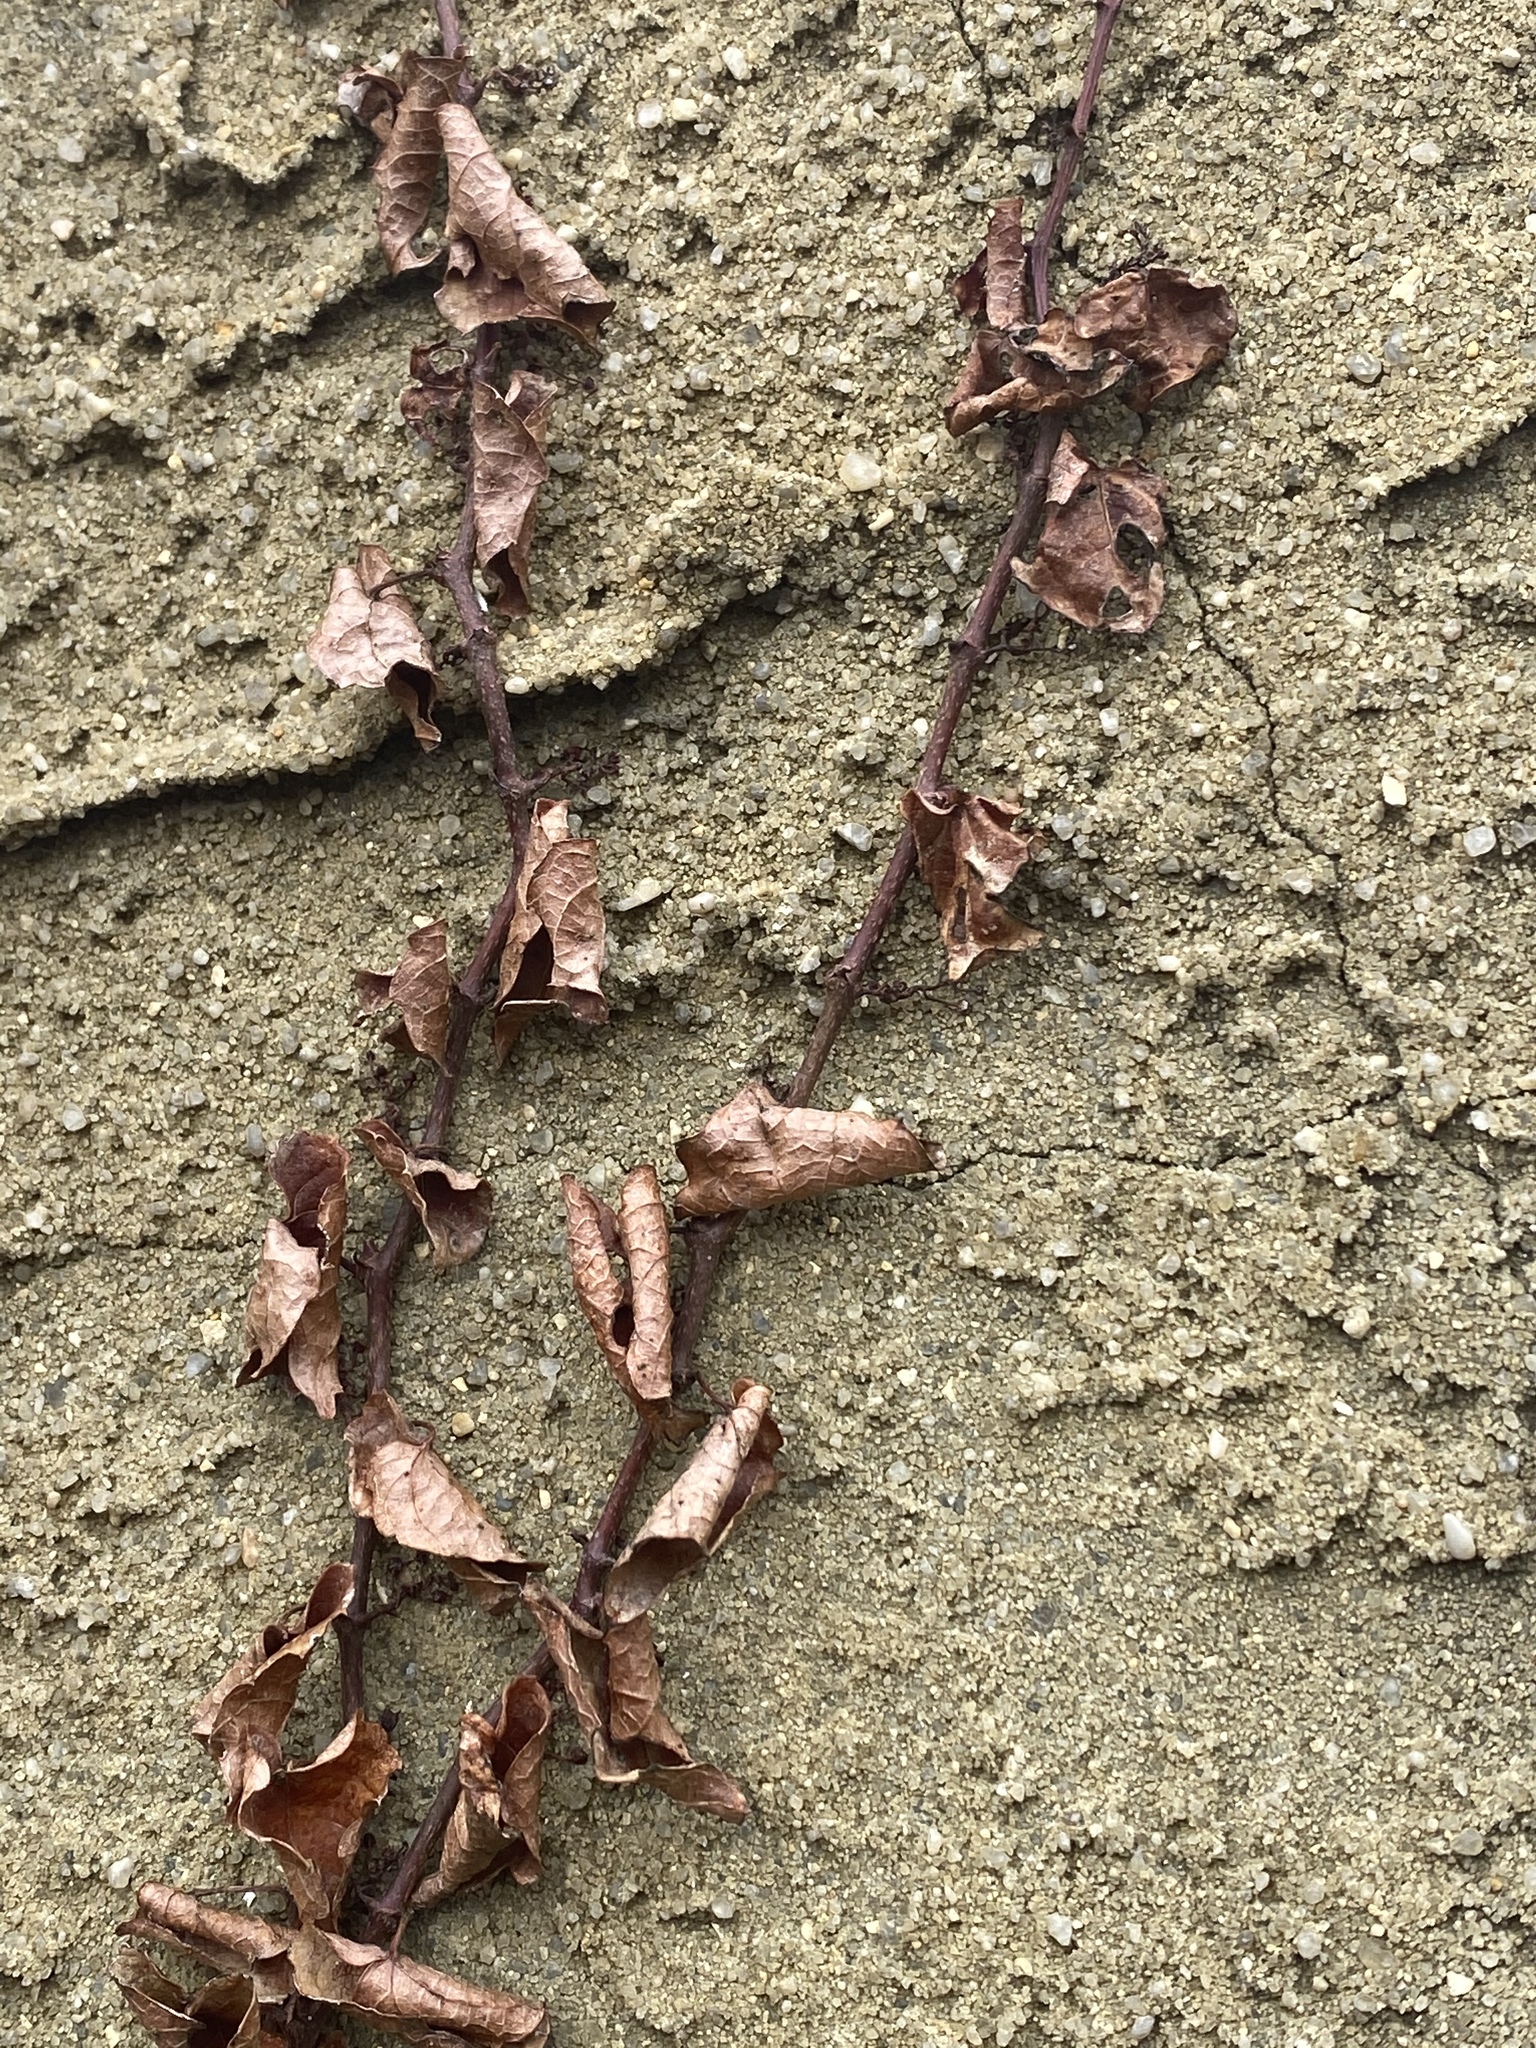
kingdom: Plantae
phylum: Tracheophyta
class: Magnoliopsida
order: Vitales
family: Vitaceae
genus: Parthenocissus
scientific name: Parthenocissus tricuspidata
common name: Boston ivy
